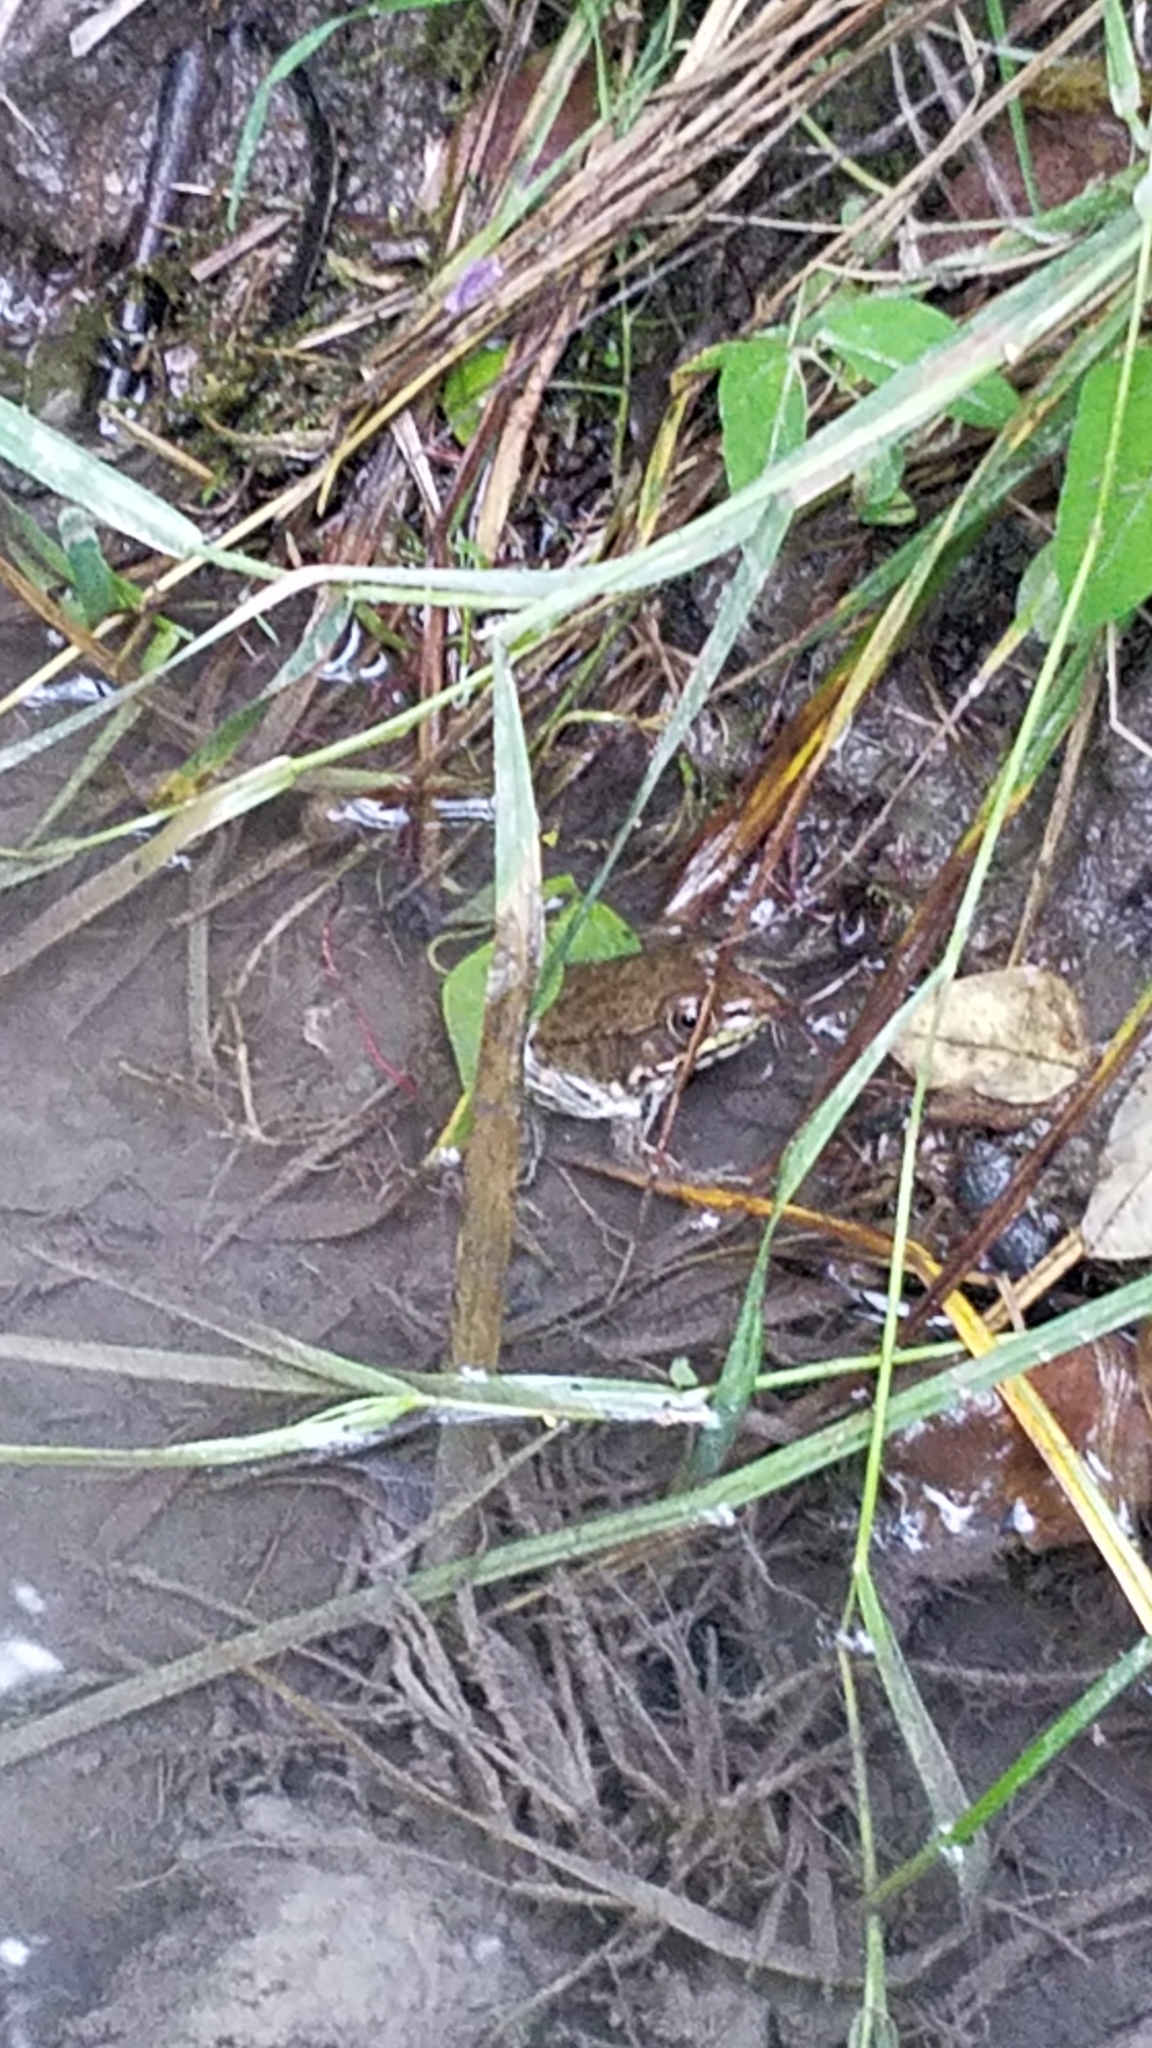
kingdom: Animalia
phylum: Chordata
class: Amphibia
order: Anura
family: Ranidae
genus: Lithobates
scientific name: Lithobates clamitans
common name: Green frog
